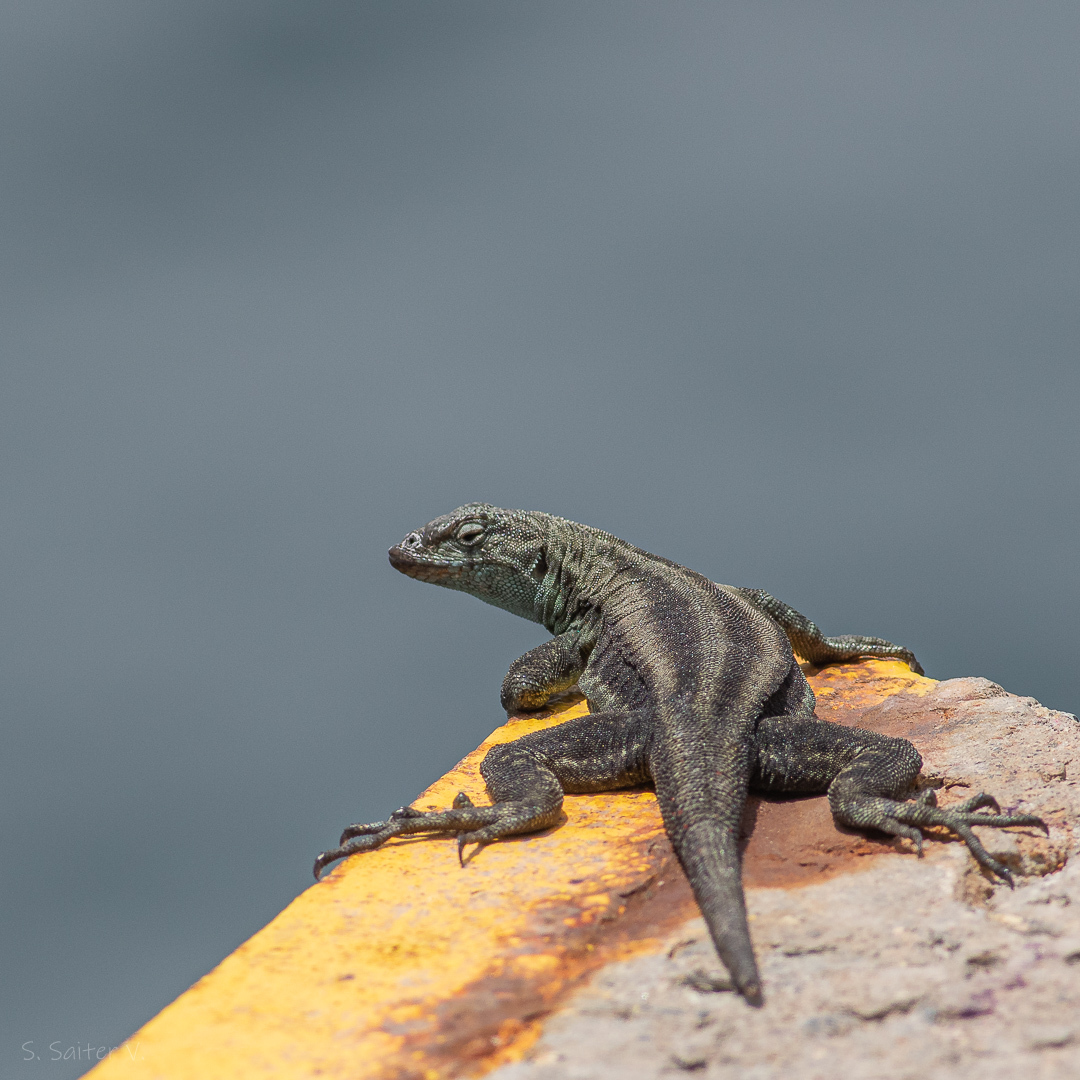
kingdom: Animalia
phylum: Chordata
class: Squamata
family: Tropiduridae
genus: Microlophus
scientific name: Microlophus quadrivittatus
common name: Four-banded pacific iguana
